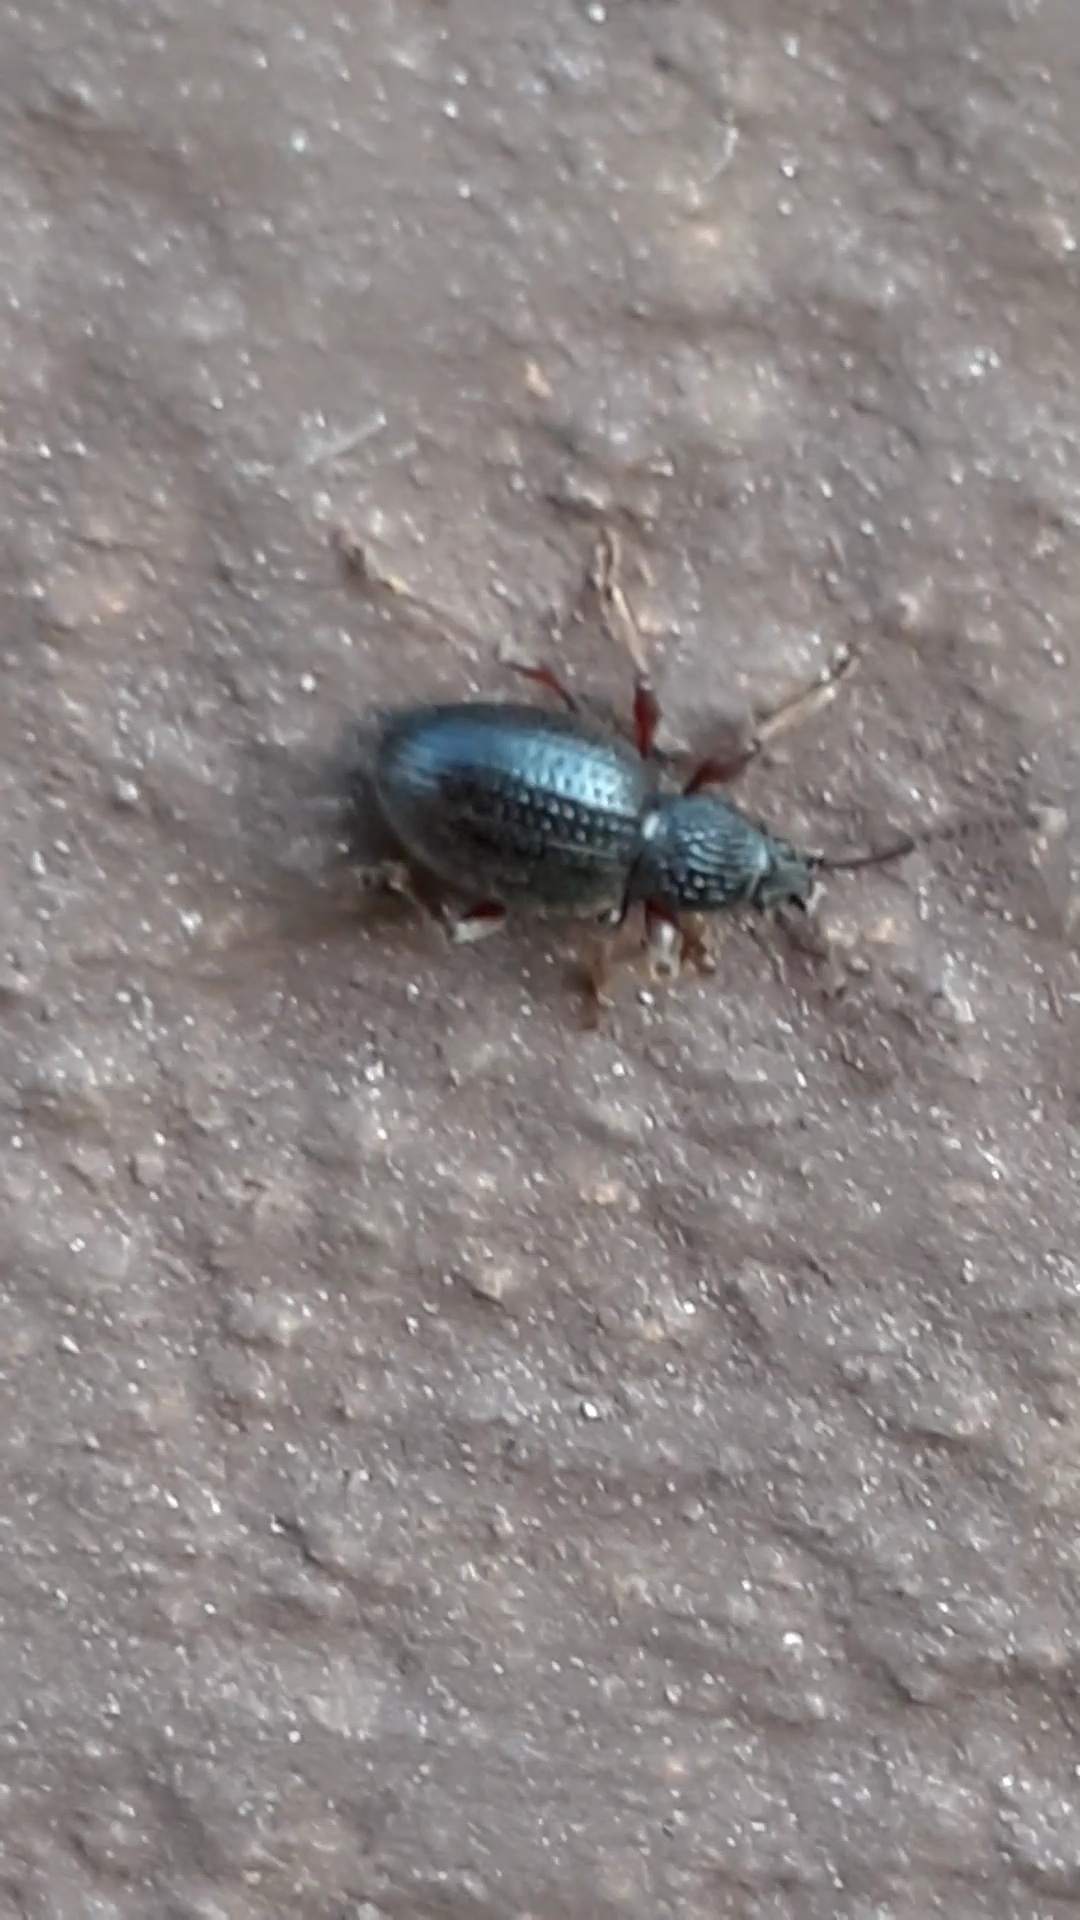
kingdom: Animalia
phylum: Arthropoda
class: Insecta
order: Coleoptera
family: Curculionidae
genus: Otiorhynchus
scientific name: Otiorhynchus ovatus
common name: Strawberry root weevil
